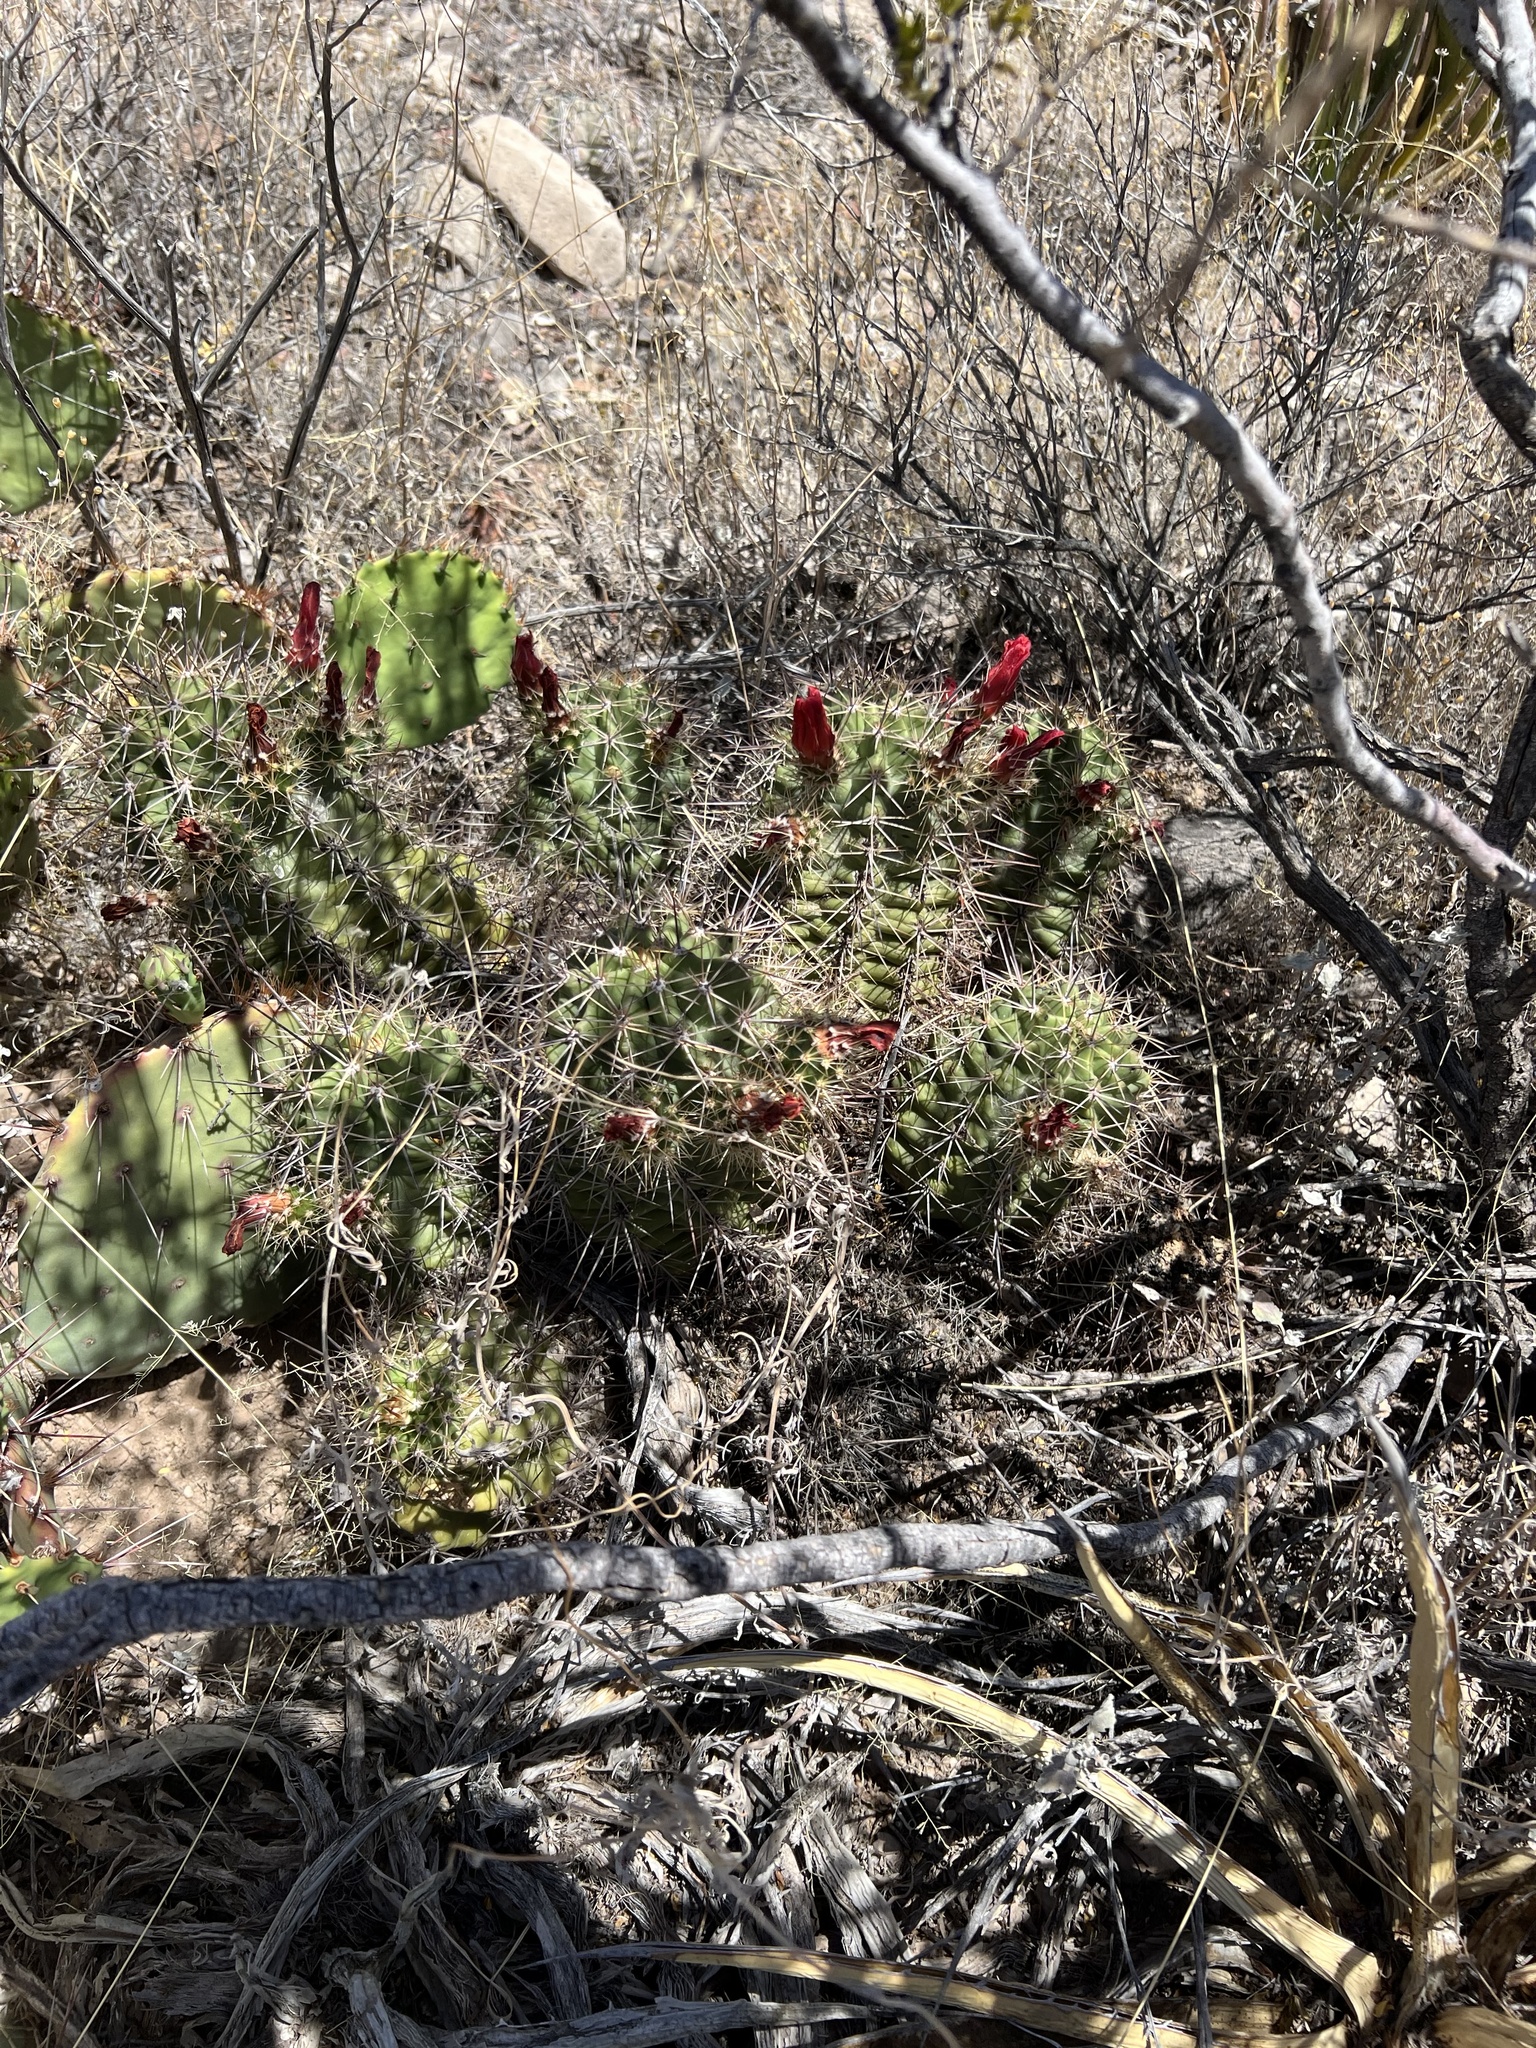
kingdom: Plantae
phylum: Tracheophyta
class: Magnoliopsida
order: Caryophyllales
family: Cactaceae
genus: Echinocereus
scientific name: Echinocereus coccineus
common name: Scarlet hedgehog cactus
